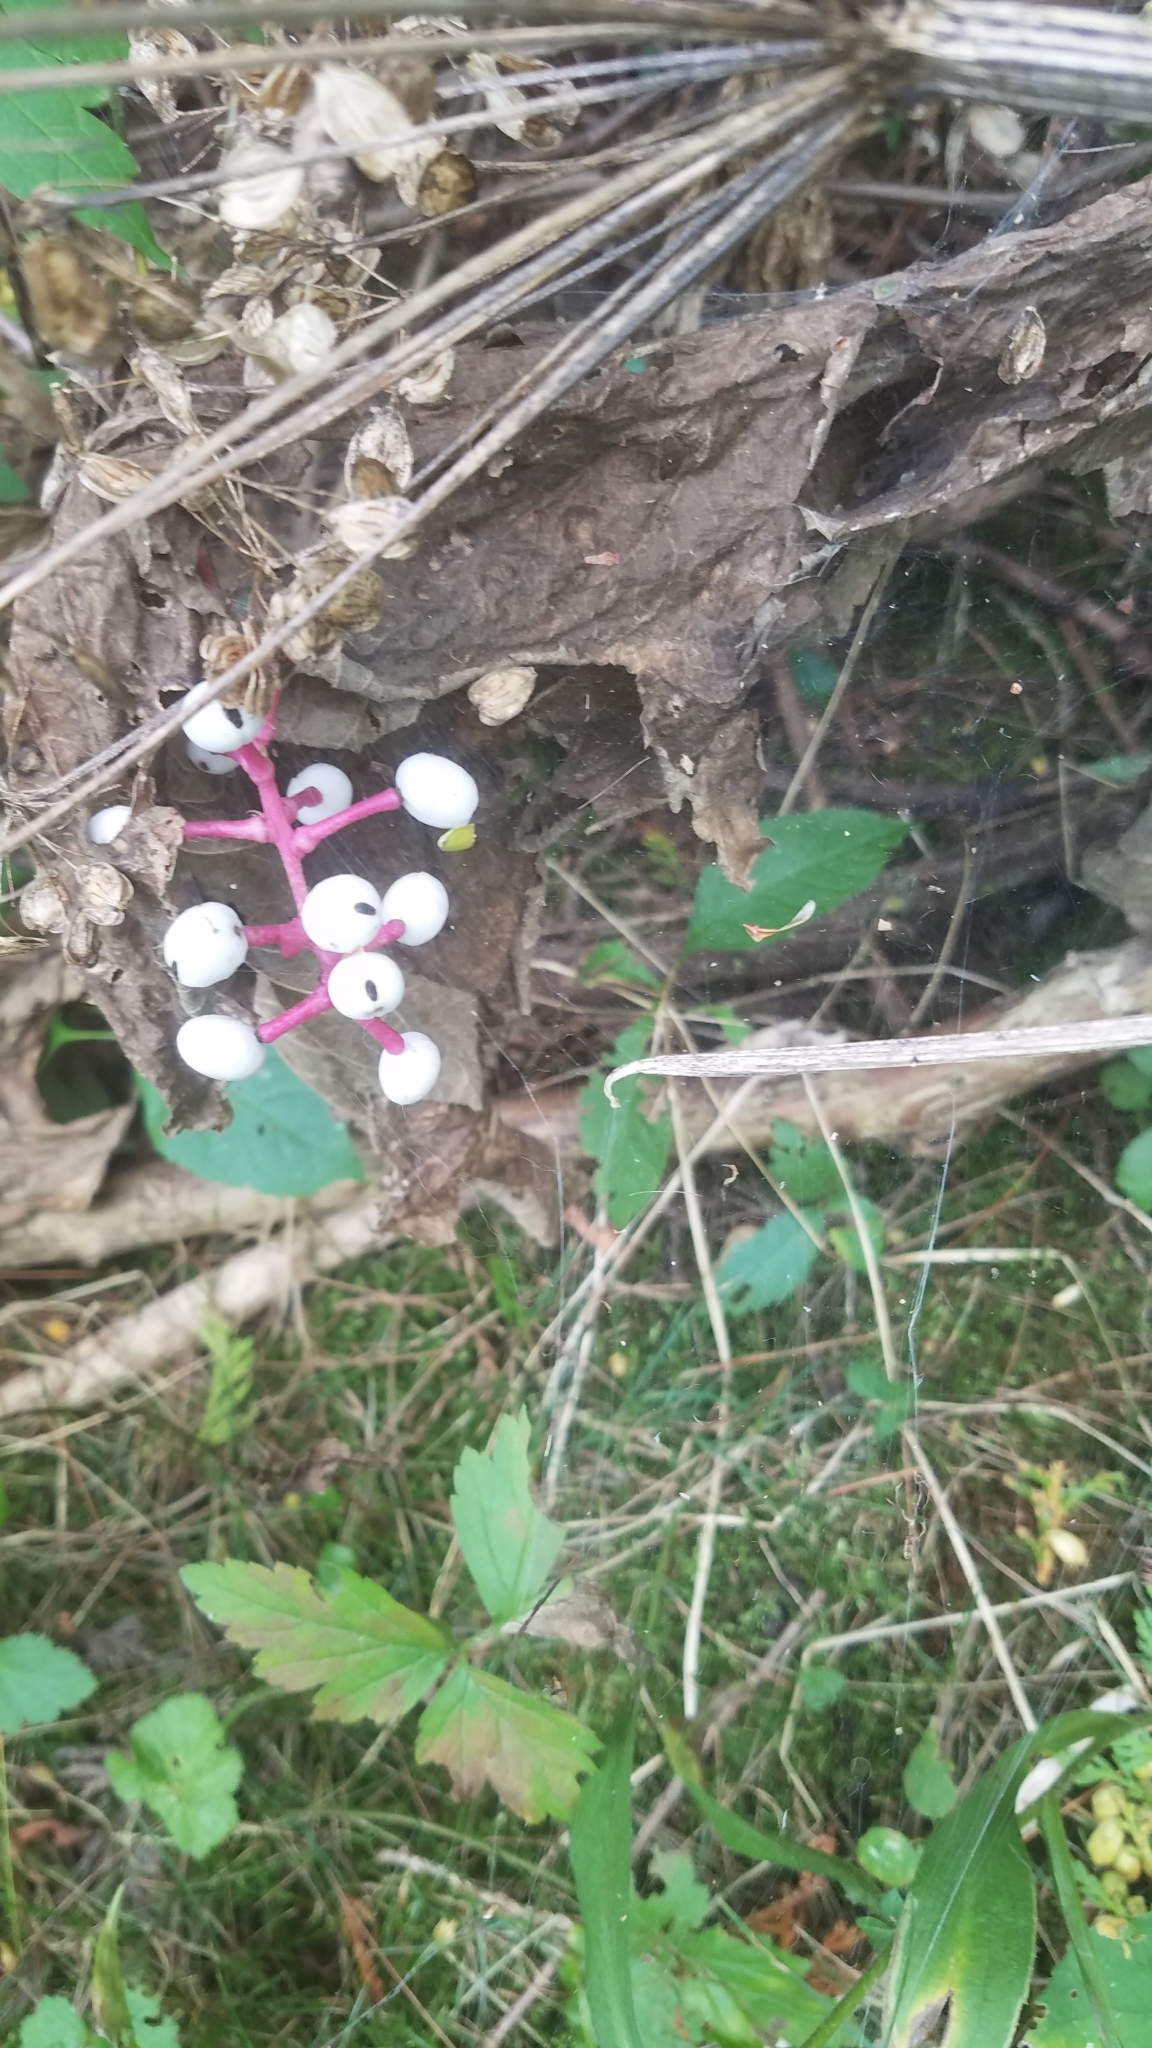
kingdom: Plantae
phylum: Tracheophyta
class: Magnoliopsida
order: Ranunculales
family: Ranunculaceae
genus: Actaea
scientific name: Actaea pachypoda
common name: Doll's-eyes
